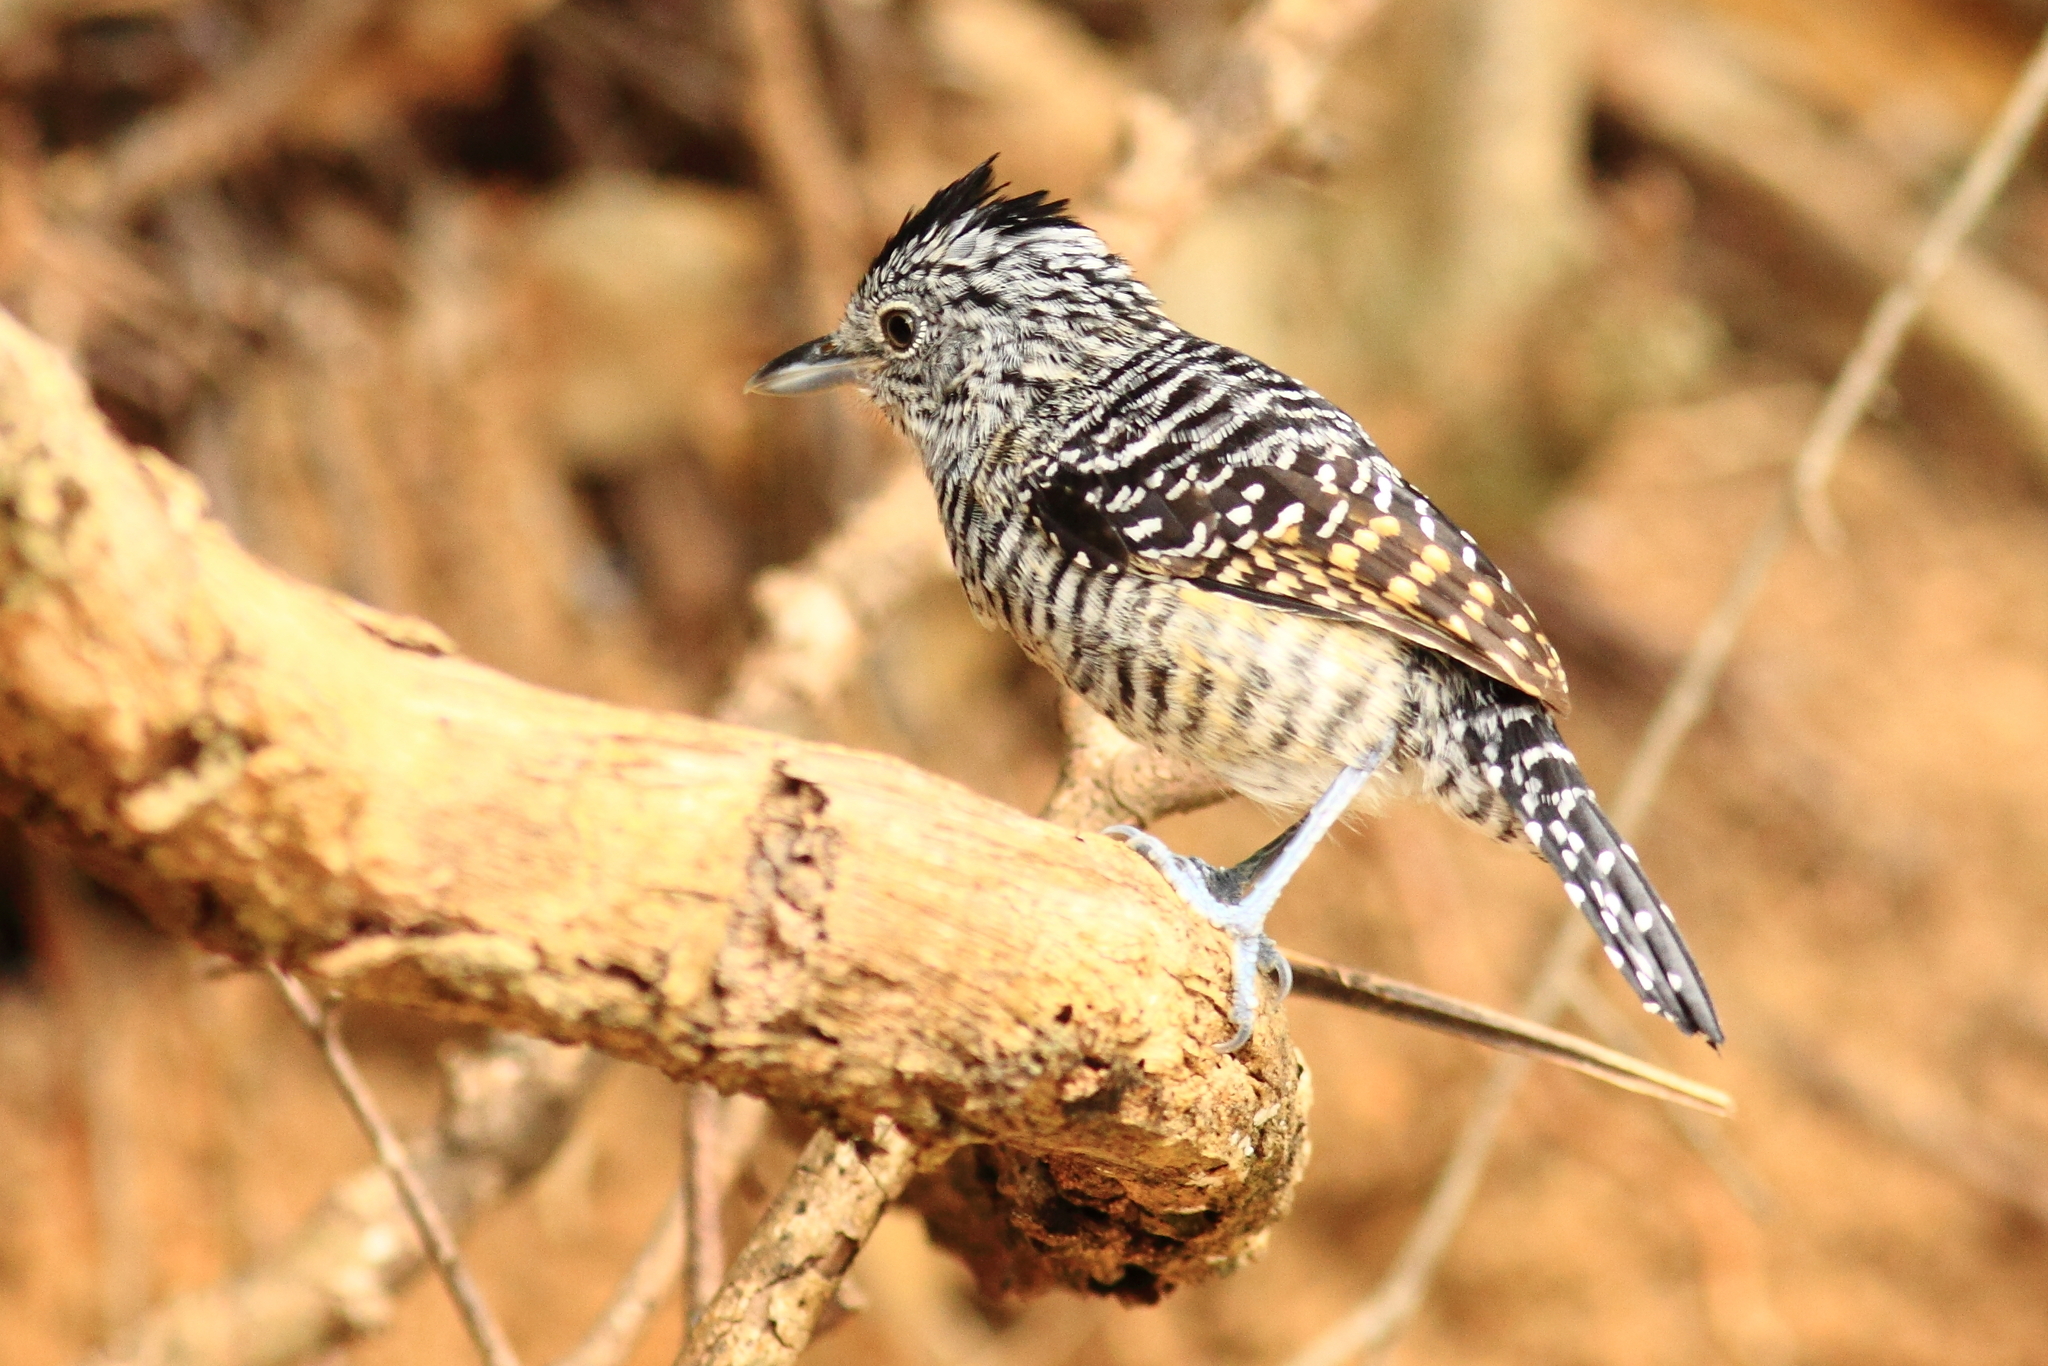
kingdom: Animalia
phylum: Chordata
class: Aves
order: Passeriformes
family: Thamnophilidae
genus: Thamnophilus
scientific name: Thamnophilus doliatus
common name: Barred antshrike
